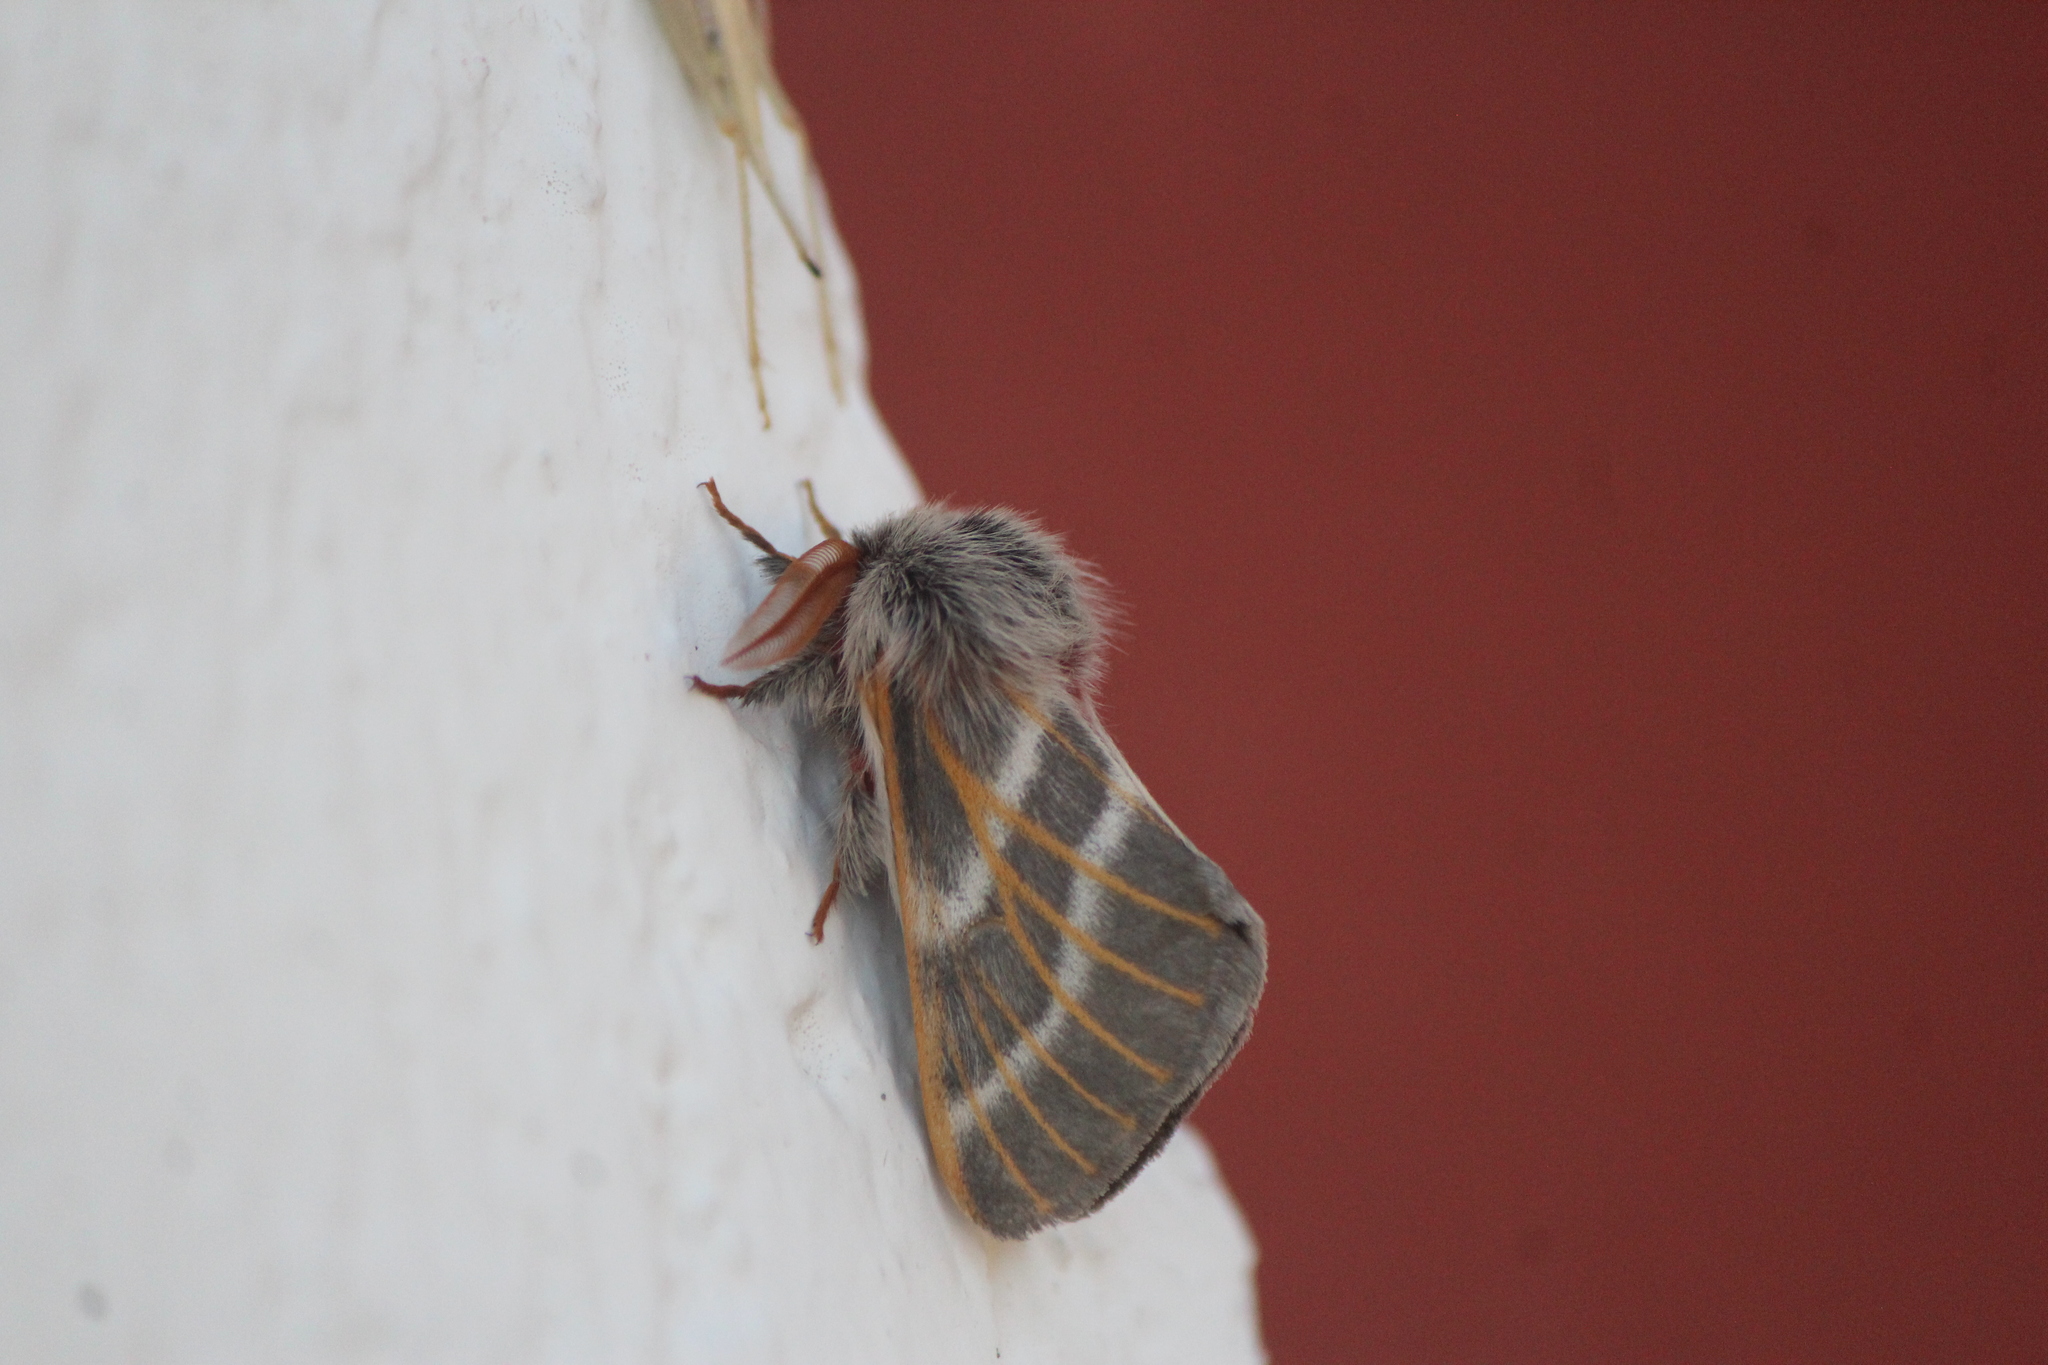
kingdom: Animalia
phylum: Arthropoda
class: Insecta
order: Lepidoptera
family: Saturniidae
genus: Hemileuca
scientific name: Hemileuca rubridorsa
